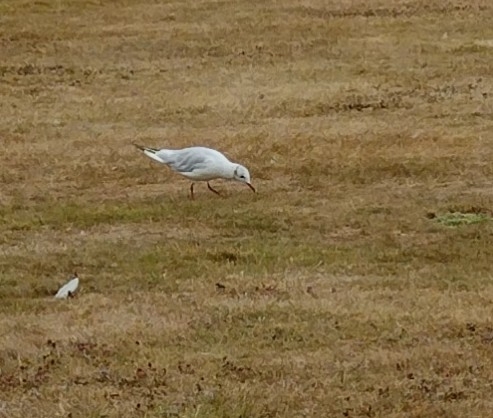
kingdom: Animalia
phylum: Chordata
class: Aves
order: Charadriiformes
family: Laridae
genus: Chroicocephalus
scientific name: Chroicocephalus ridibundus
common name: Black-headed gull
